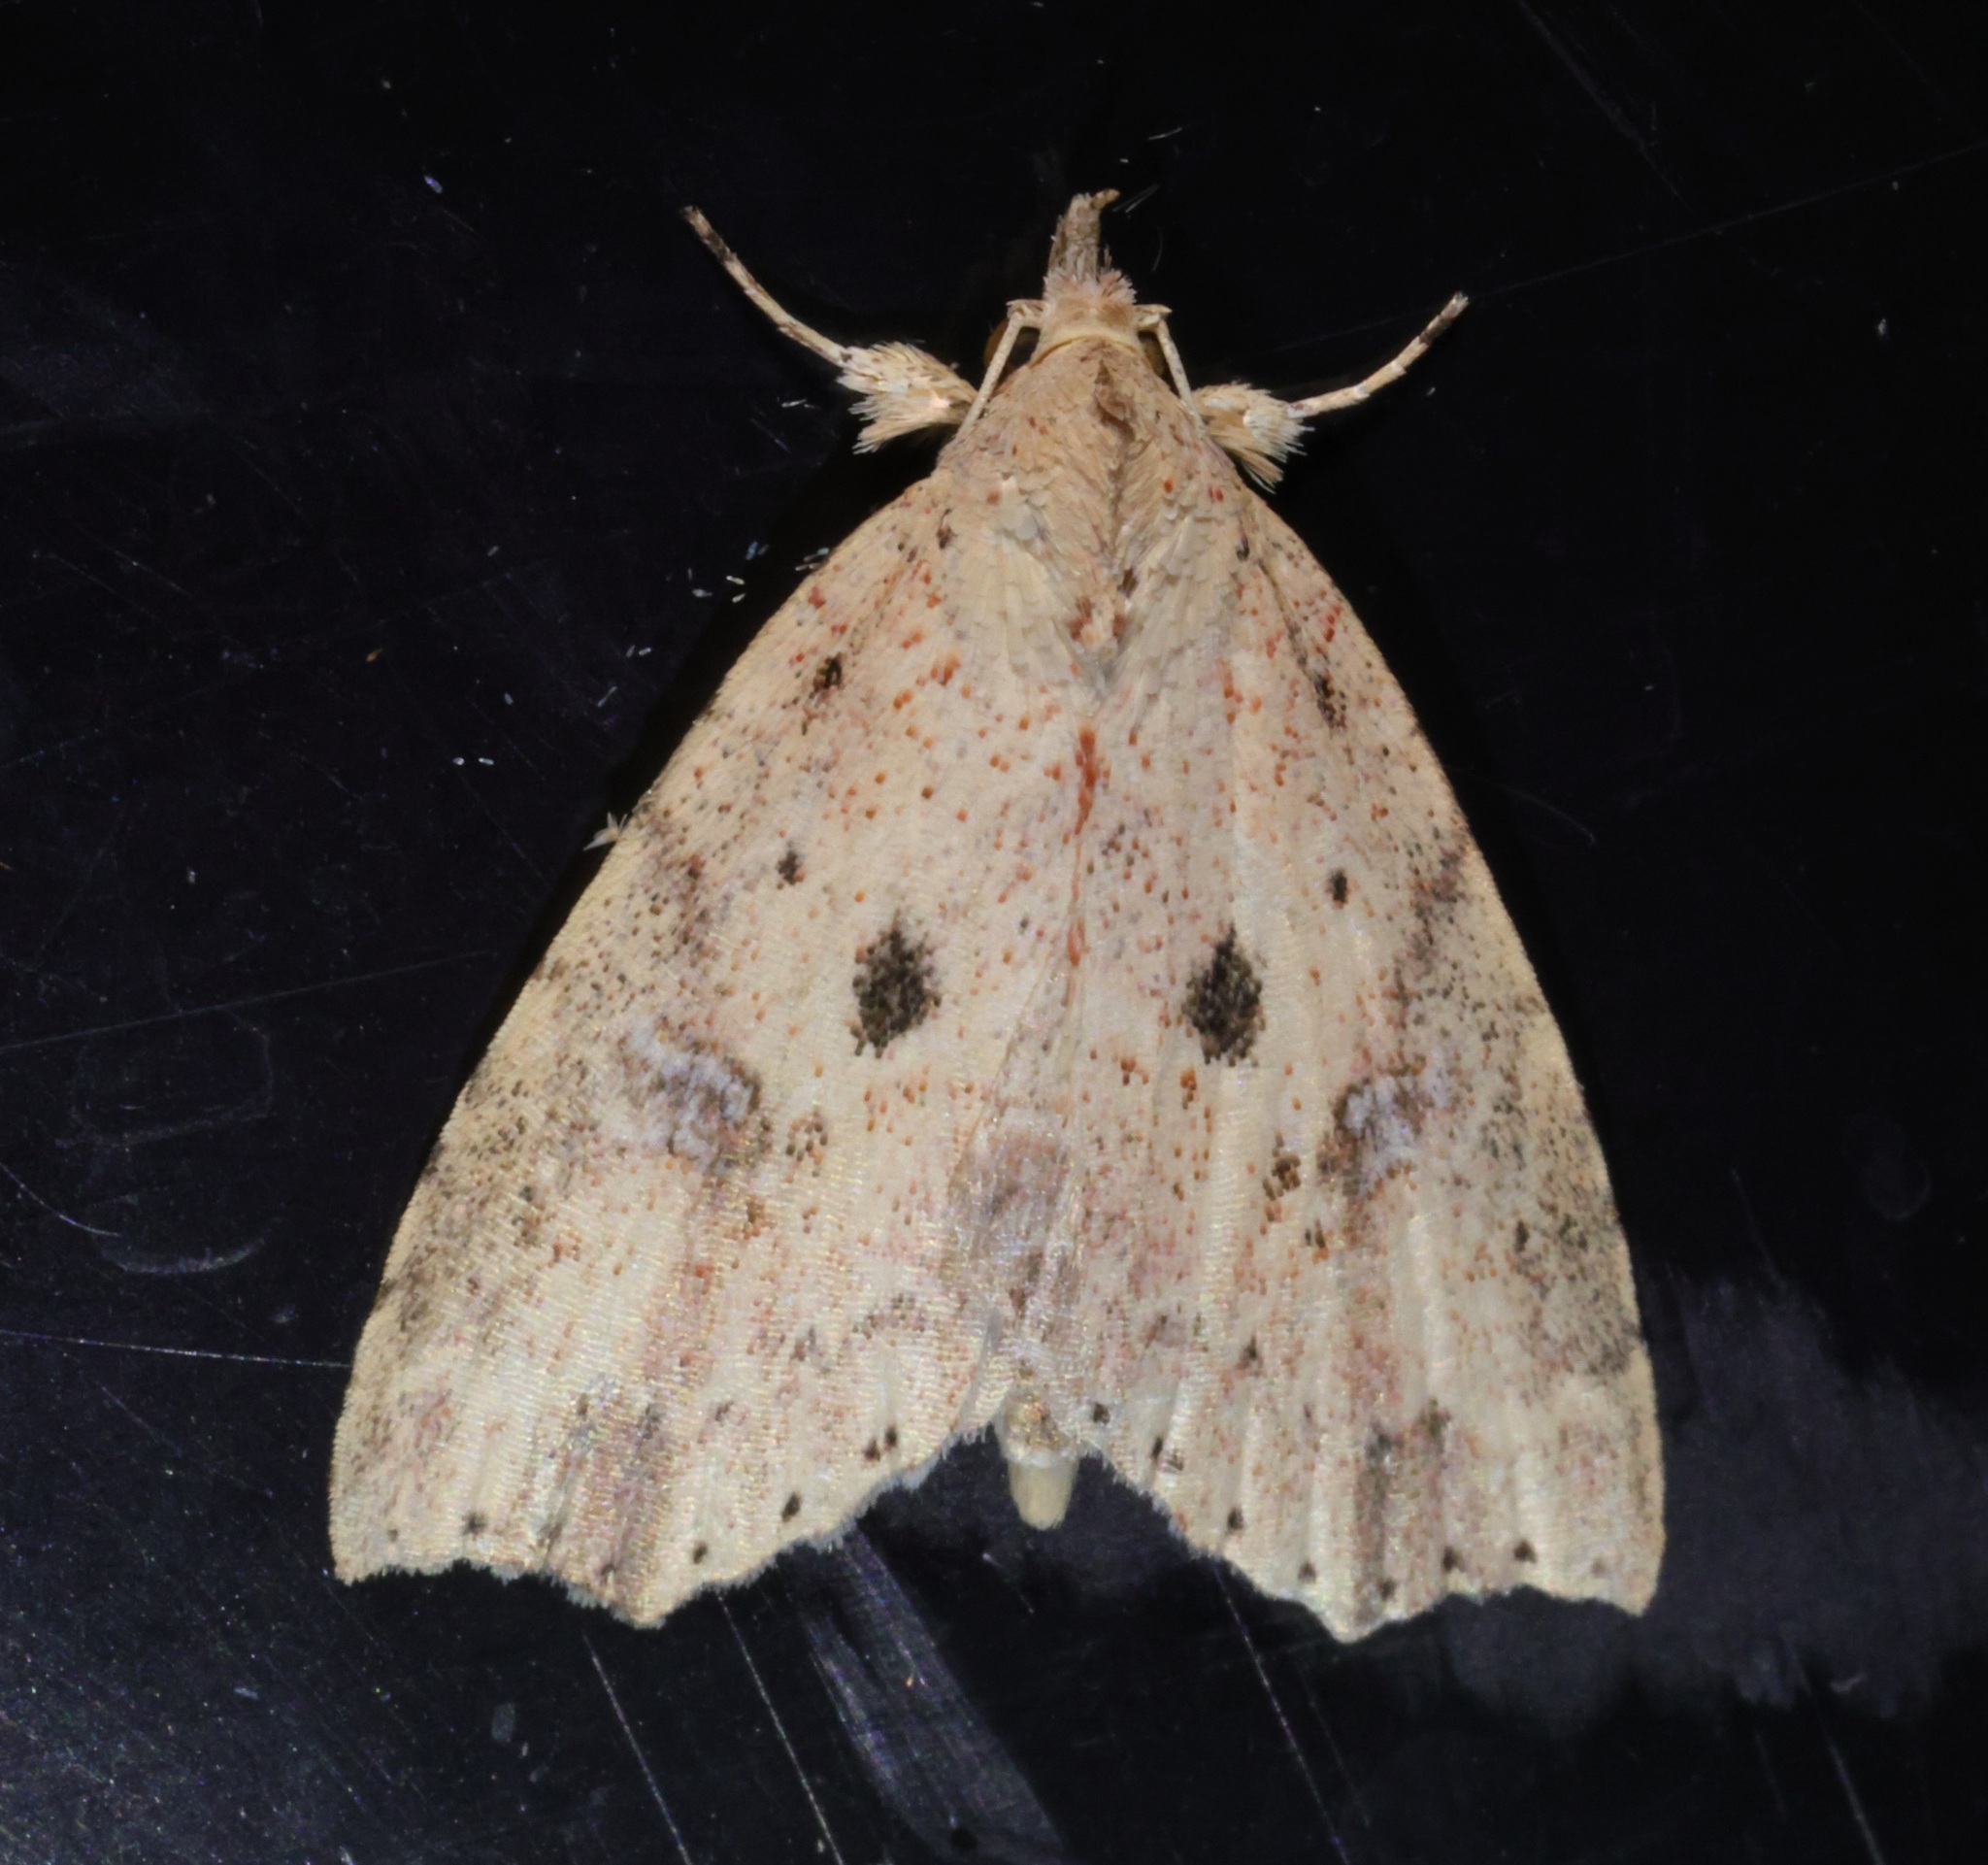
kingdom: Animalia
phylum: Arthropoda
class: Insecta
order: Lepidoptera
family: Erebidae
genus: Olulis
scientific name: Olulis puncticinctalis
